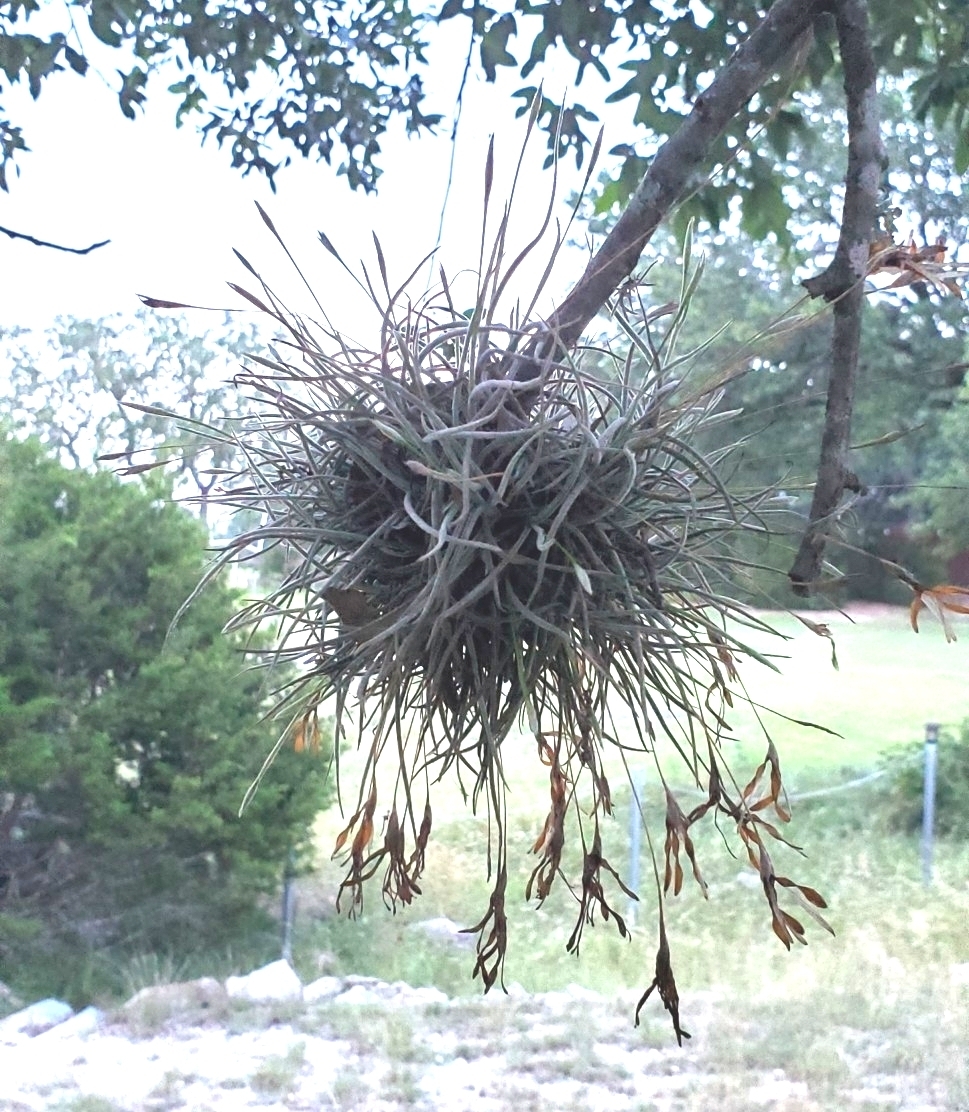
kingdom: Plantae
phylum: Tracheophyta
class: Liliopsida
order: Poales
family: Bromeliaceae
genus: Tillandsia
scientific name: Tillandsia recurvata
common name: Small ballmoss
